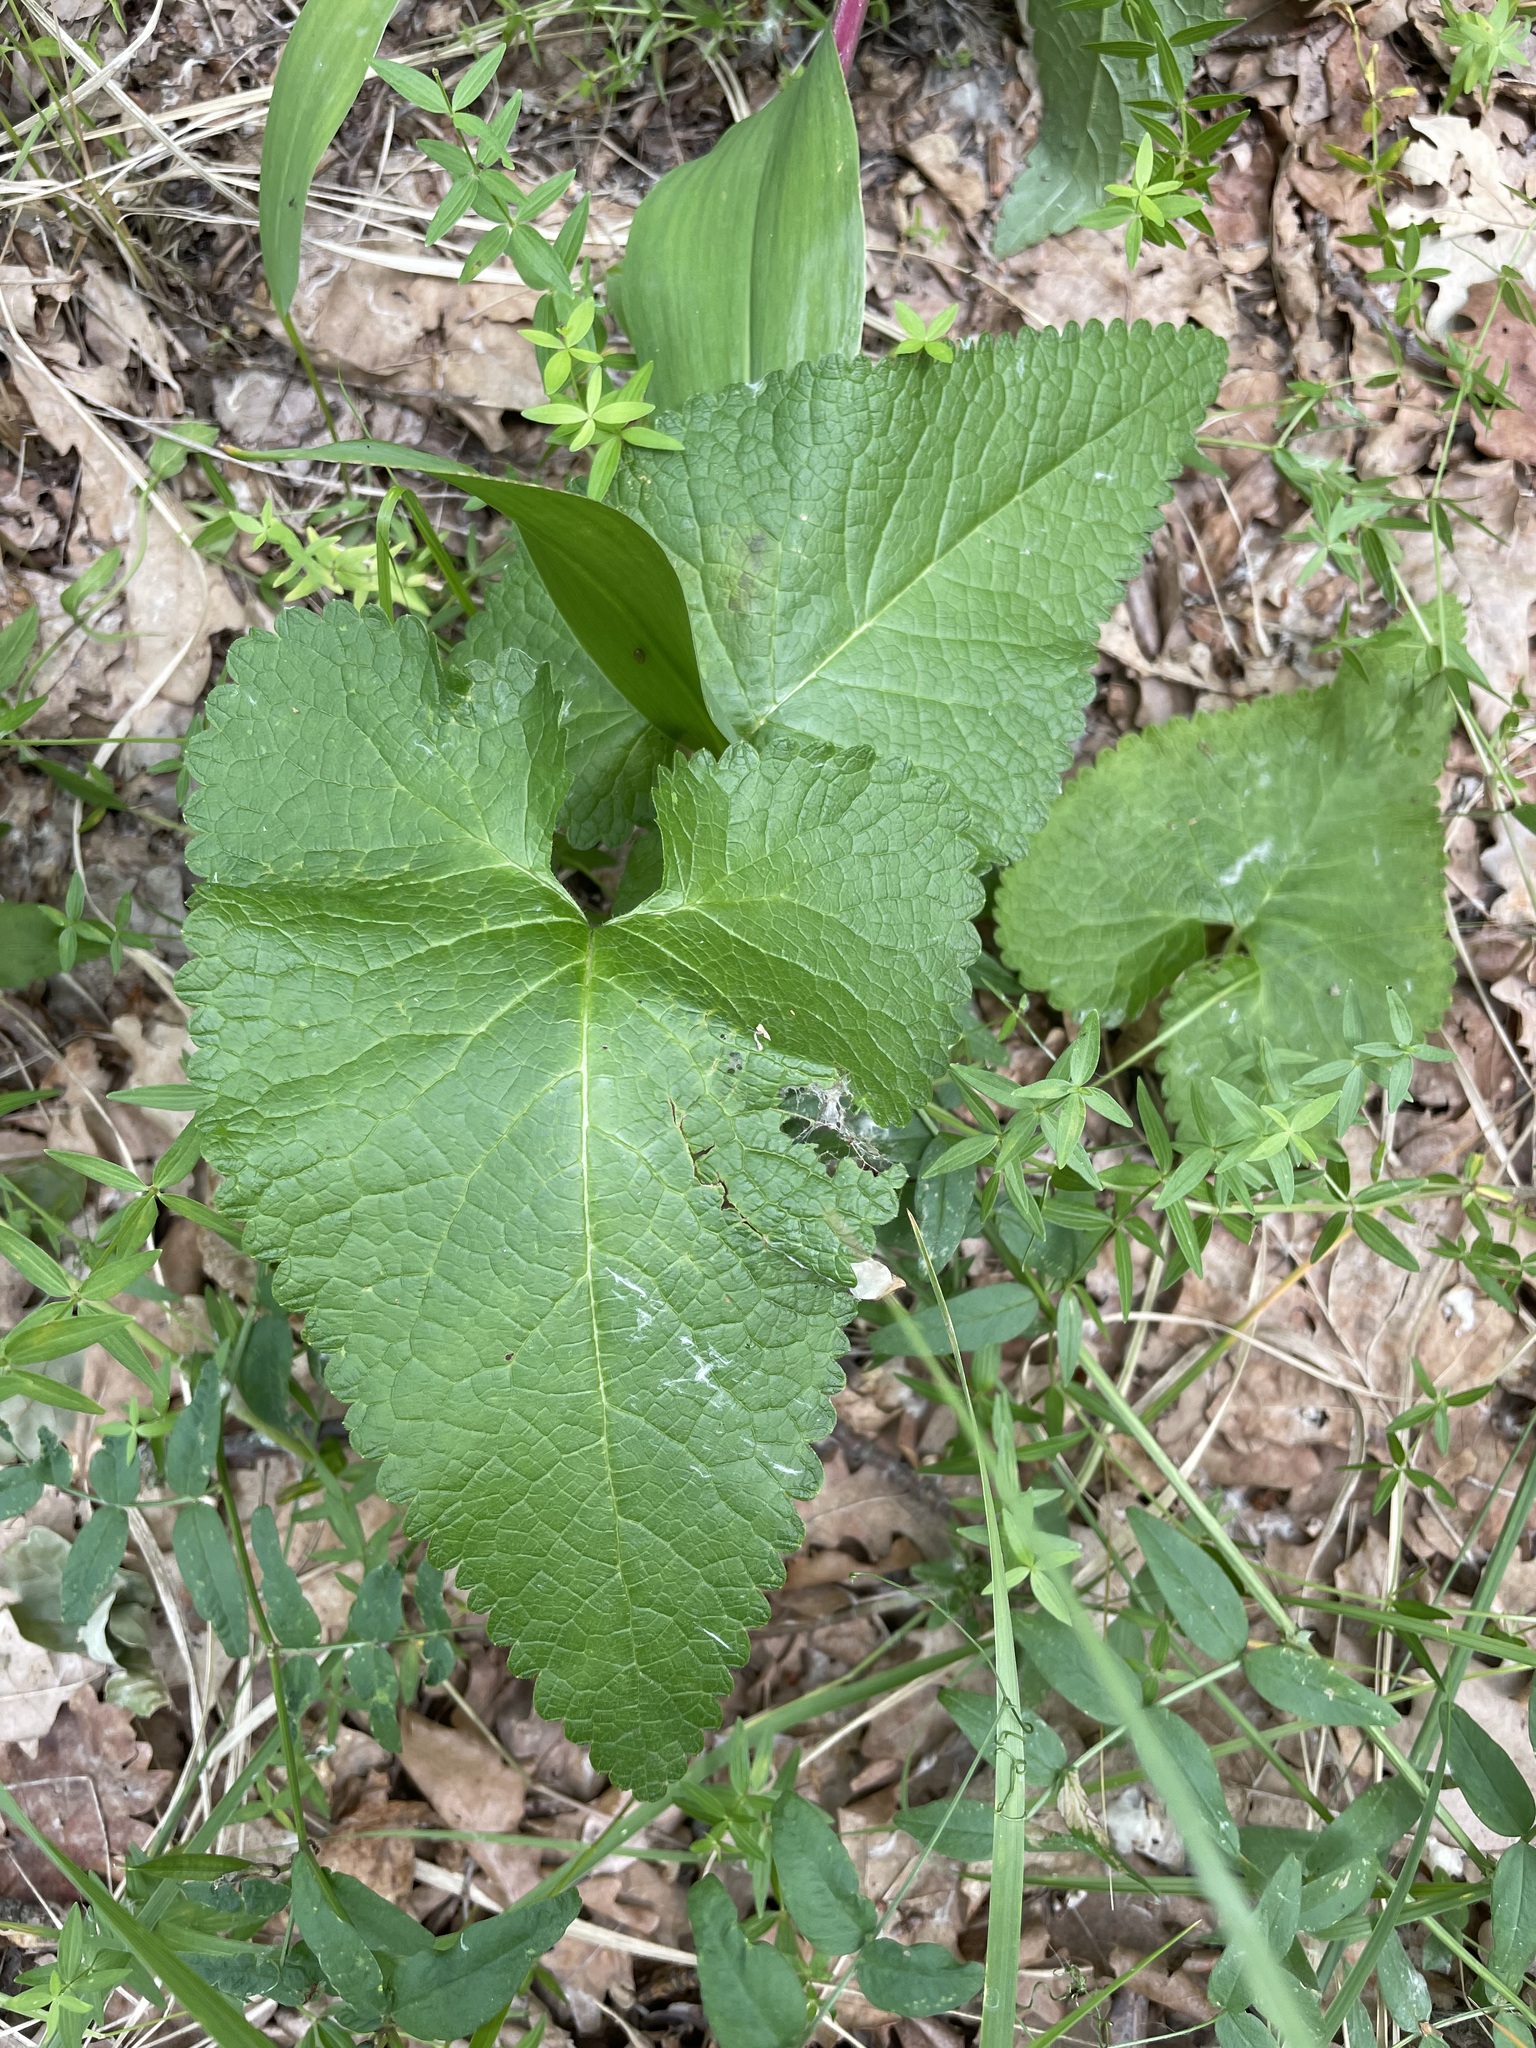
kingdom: Plantae
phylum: Tracheophyta
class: Magnoliopsida
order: Lamiales
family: Lamiaceae
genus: Phlomoides
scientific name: Phlomoides tuberosa
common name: Tuberous jerusalem sage
